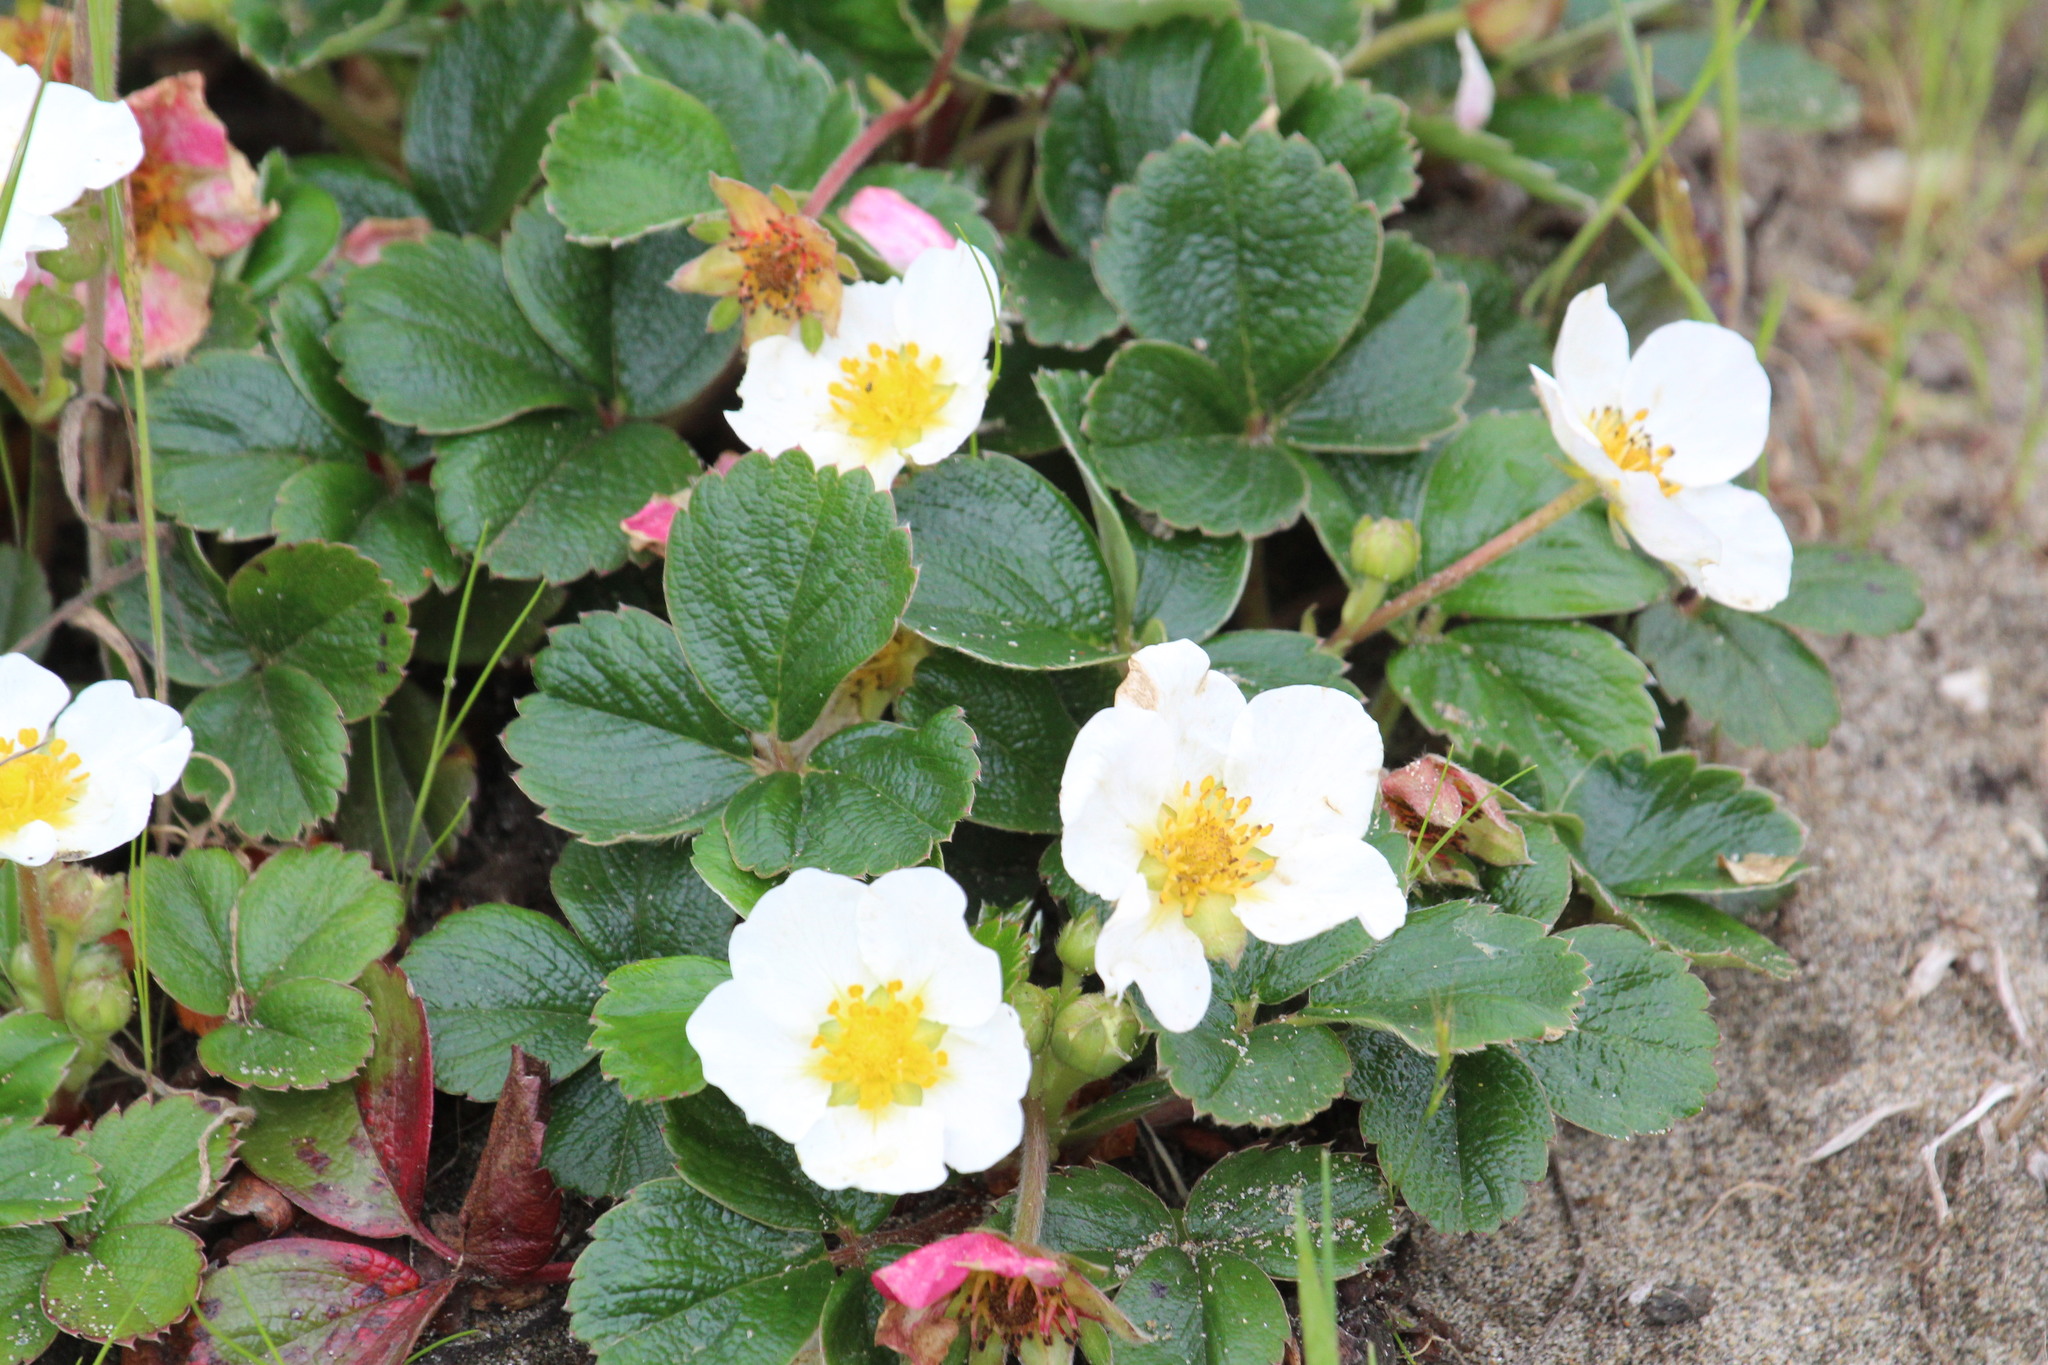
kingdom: Plantae
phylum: Tracheophyta
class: Magnoliopsida
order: Rosales
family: Rosaceae
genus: Fragaria
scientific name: Fragaria chiloensis
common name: Beach strawberry
